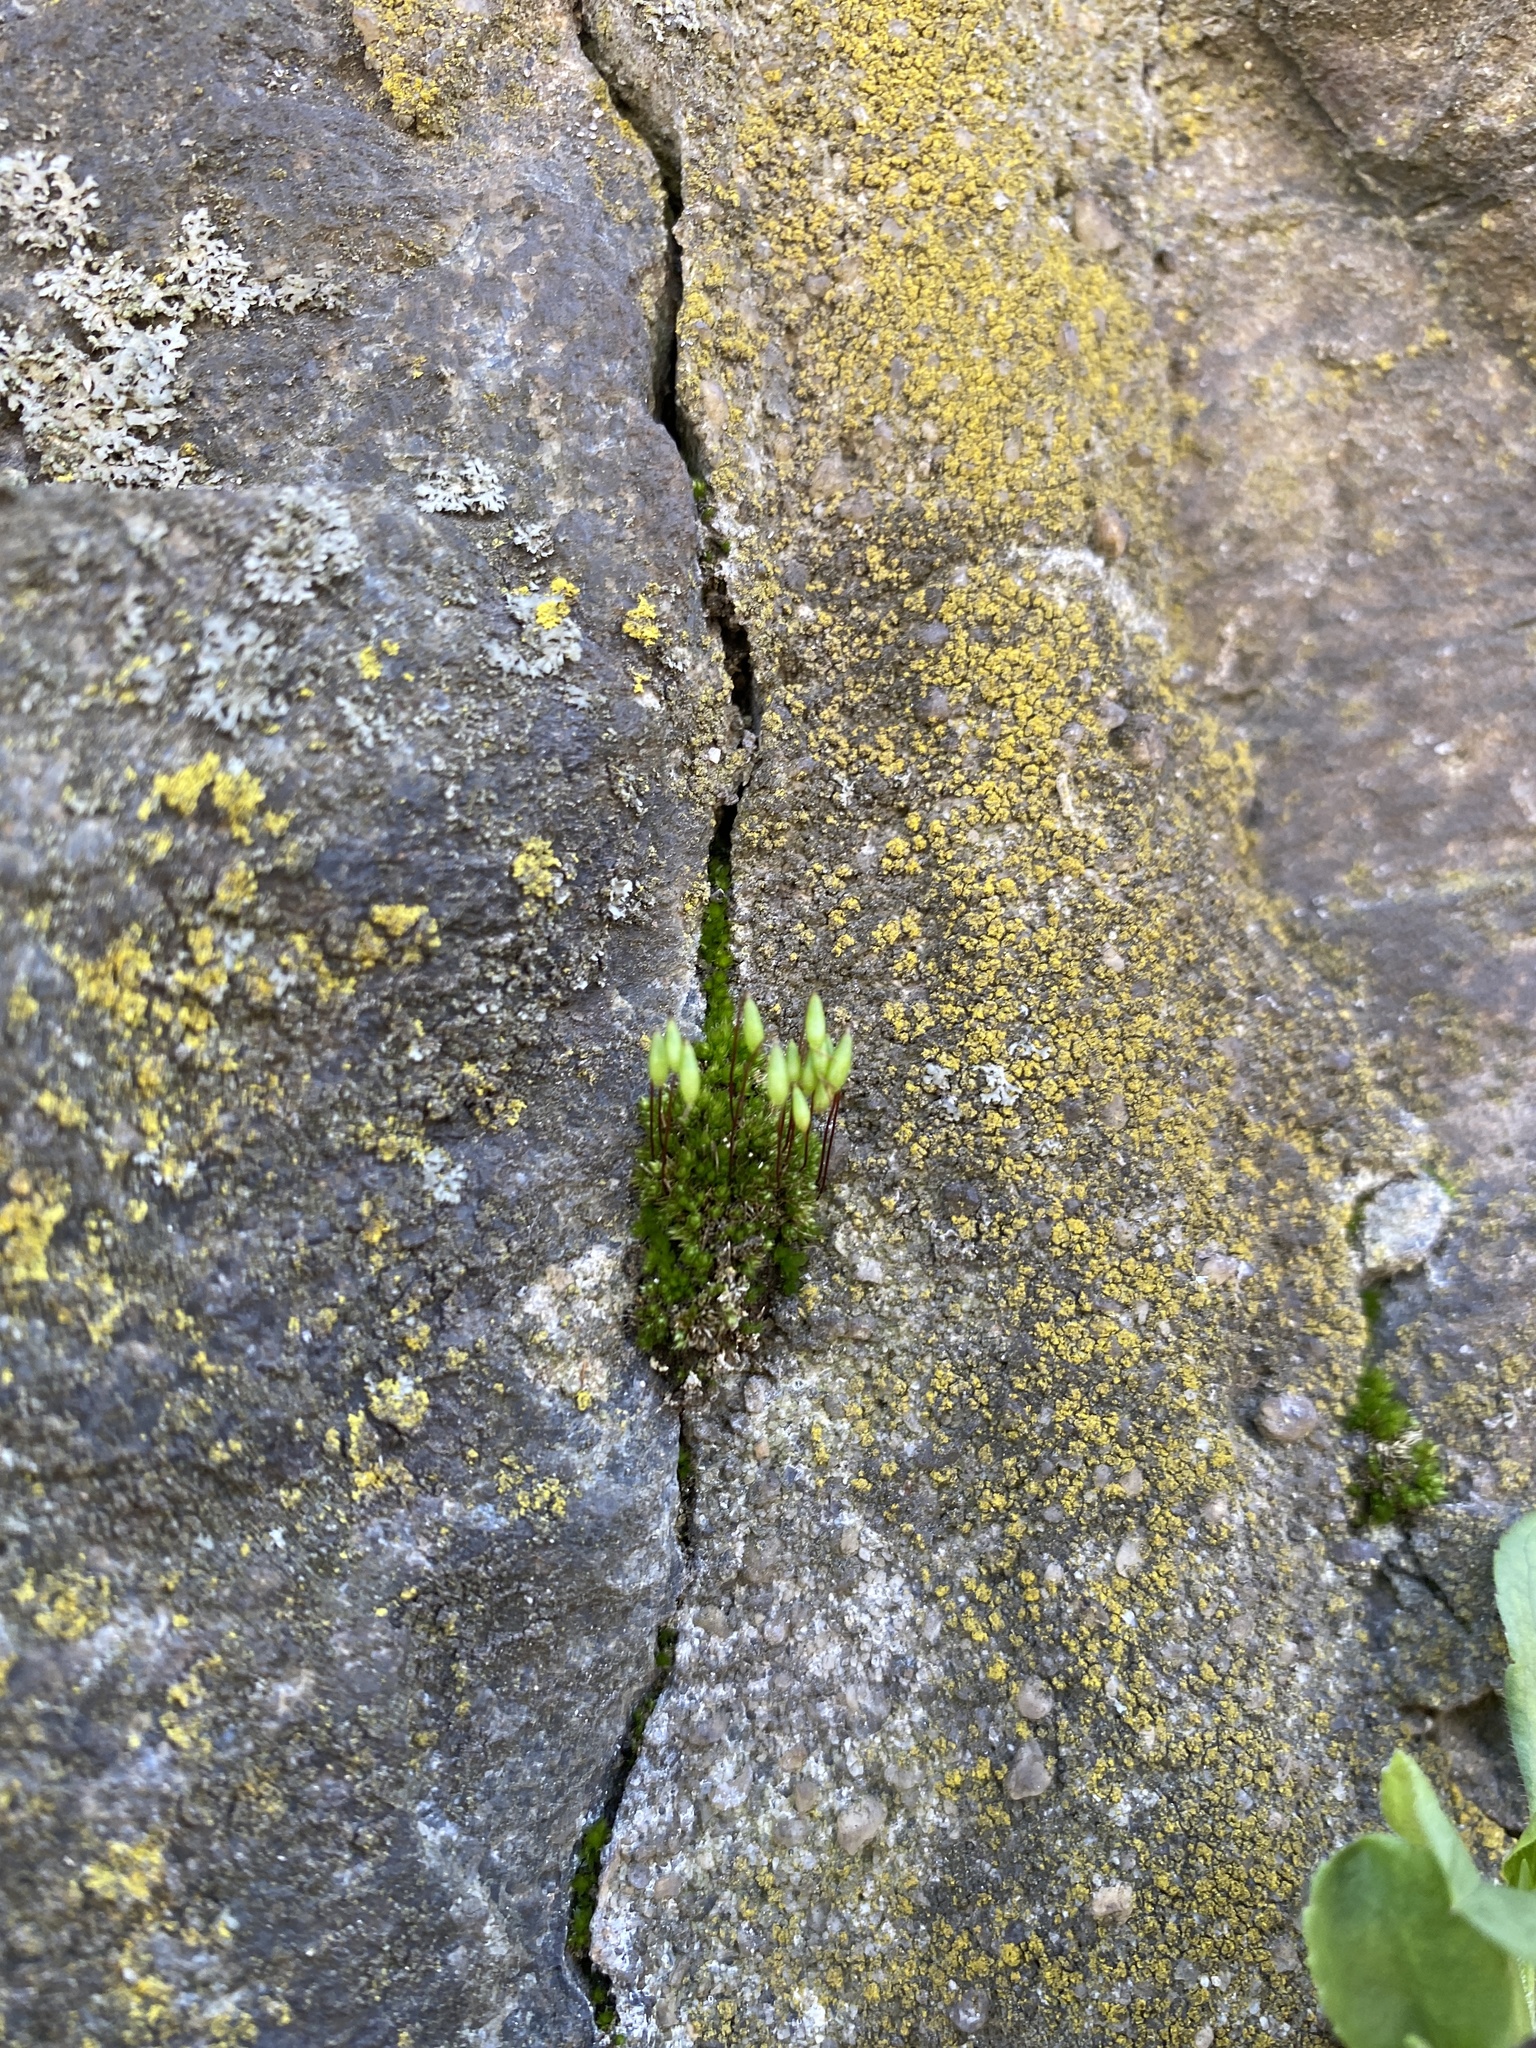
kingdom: Plantae
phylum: Bryophyta
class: Bryopsida
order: Bryales
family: Bryaceae
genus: Rosulabryum
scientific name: Rosulabryum capillare
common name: Capillary thread-moss
